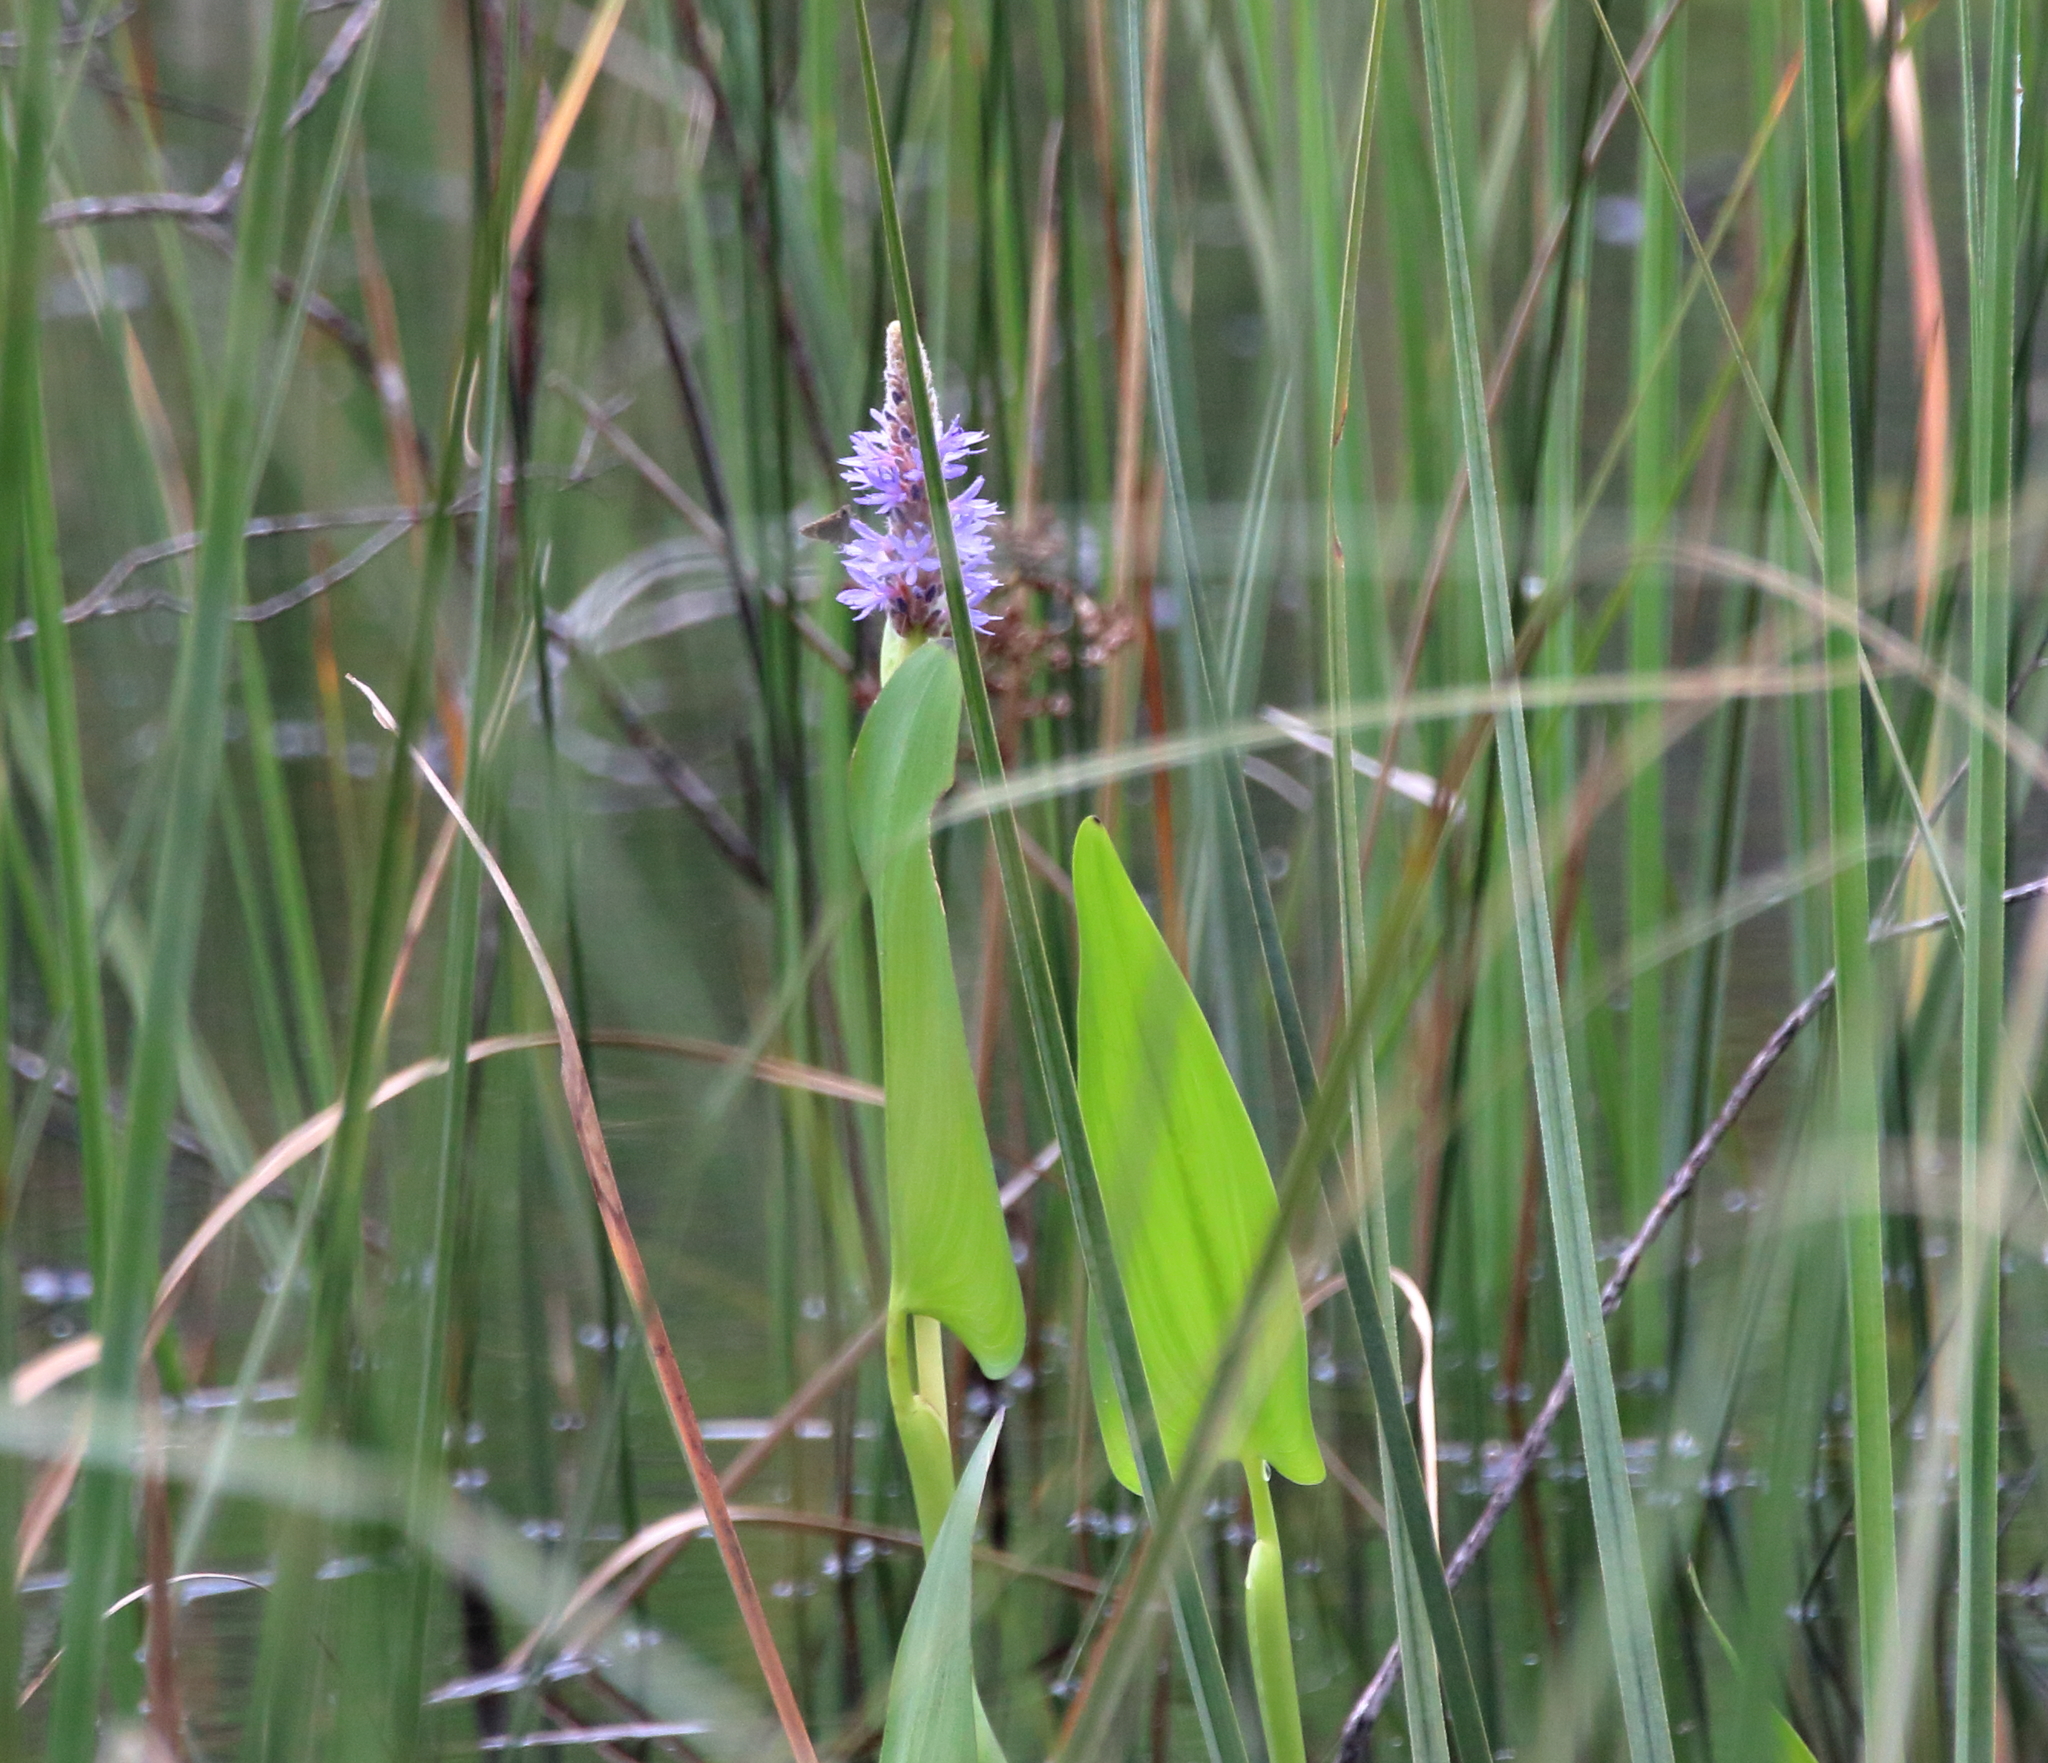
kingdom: Plantae
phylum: Tracheophyta
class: Liliopsida
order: Commelinales
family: Pontederiaceae
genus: Pontederia
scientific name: Pontederia cordata
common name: Pickerelweed
